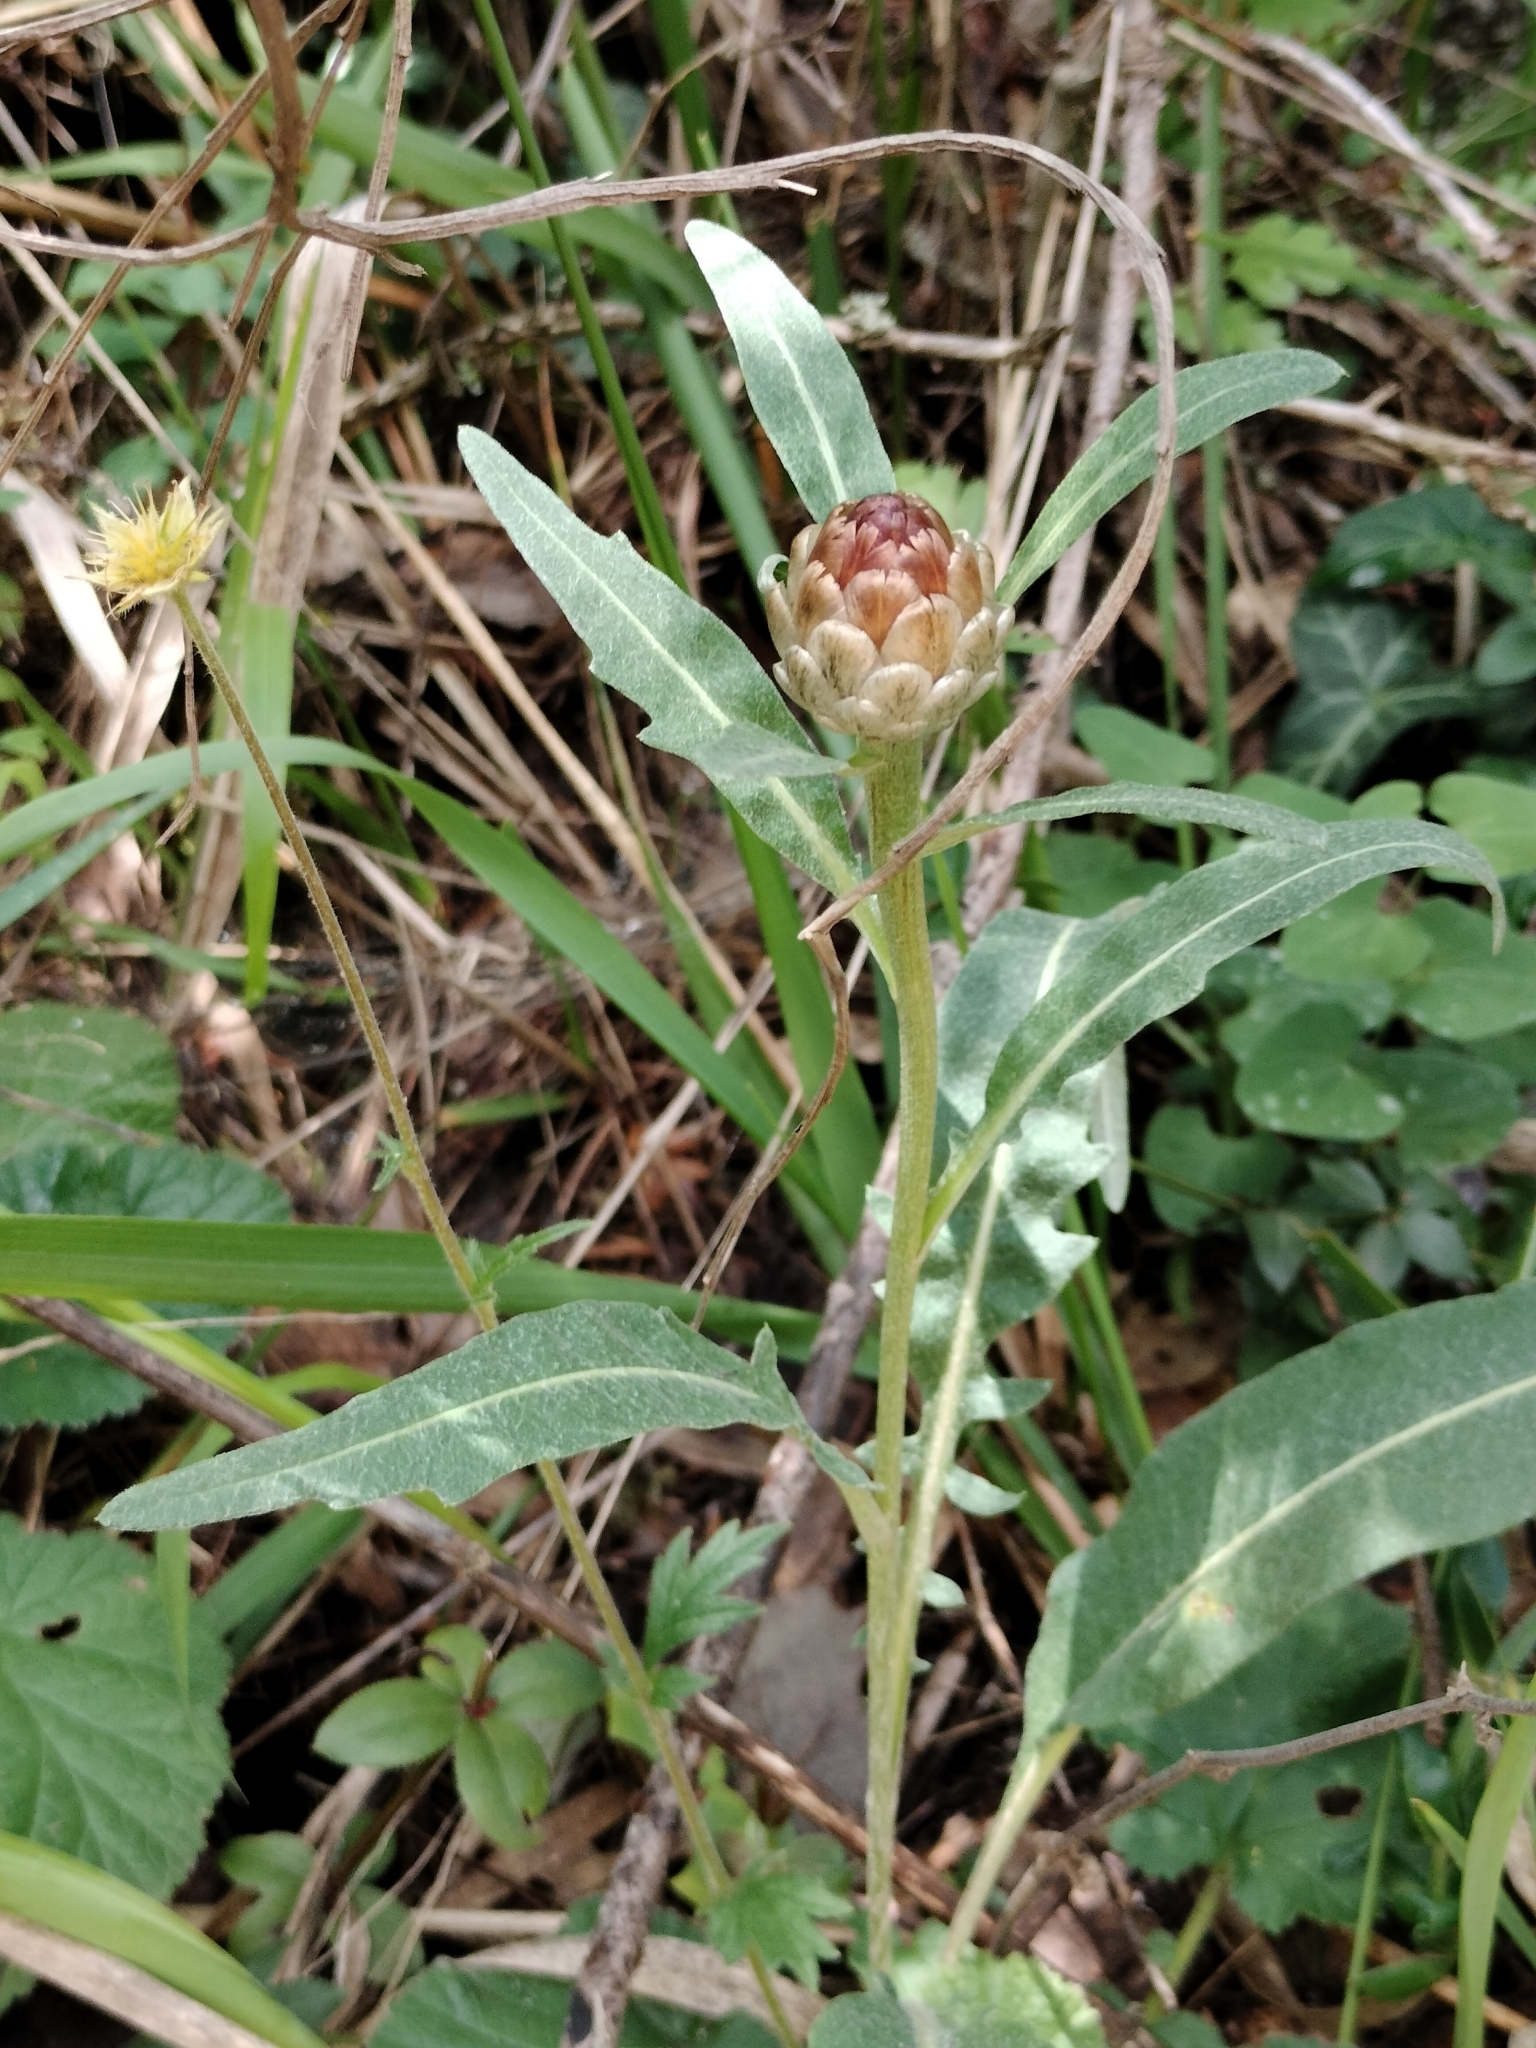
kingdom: Plantae
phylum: Tracheophyta
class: Magnoliopsida
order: Asterales
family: Asteraceae
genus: Leuzea
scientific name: Leuzea conifera
